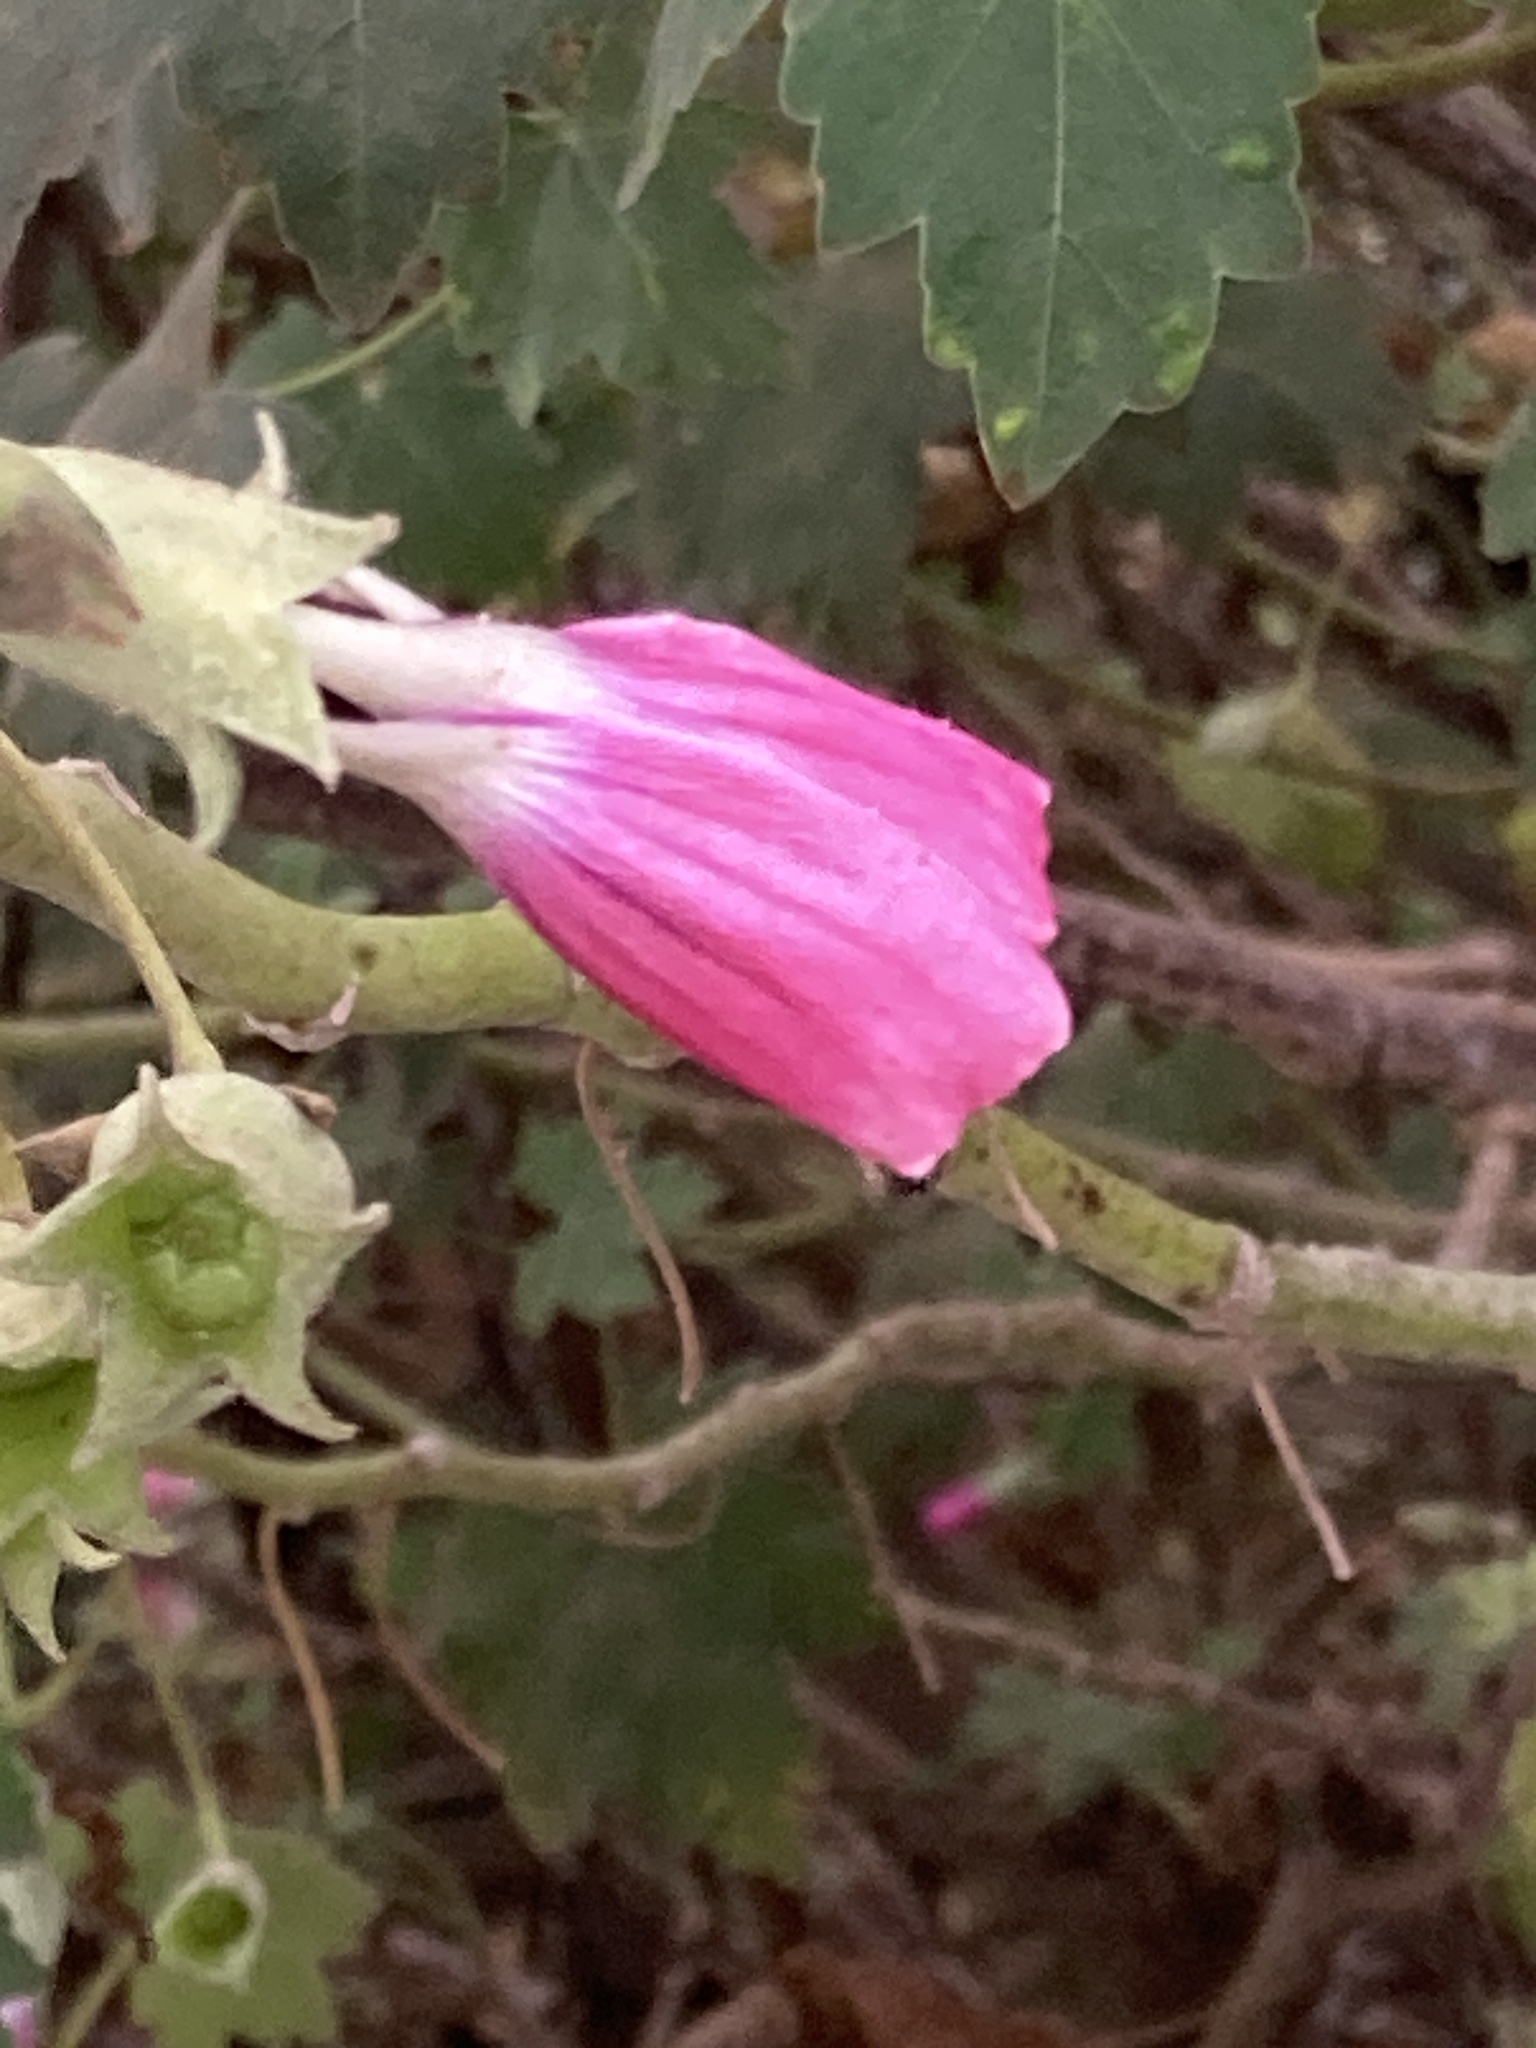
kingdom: Plantae
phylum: Tracheophyta
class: Magnoliopsida
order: Malvales
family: Malvaceae
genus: Malva
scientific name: Malva assurgentiflora
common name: Island mallow
